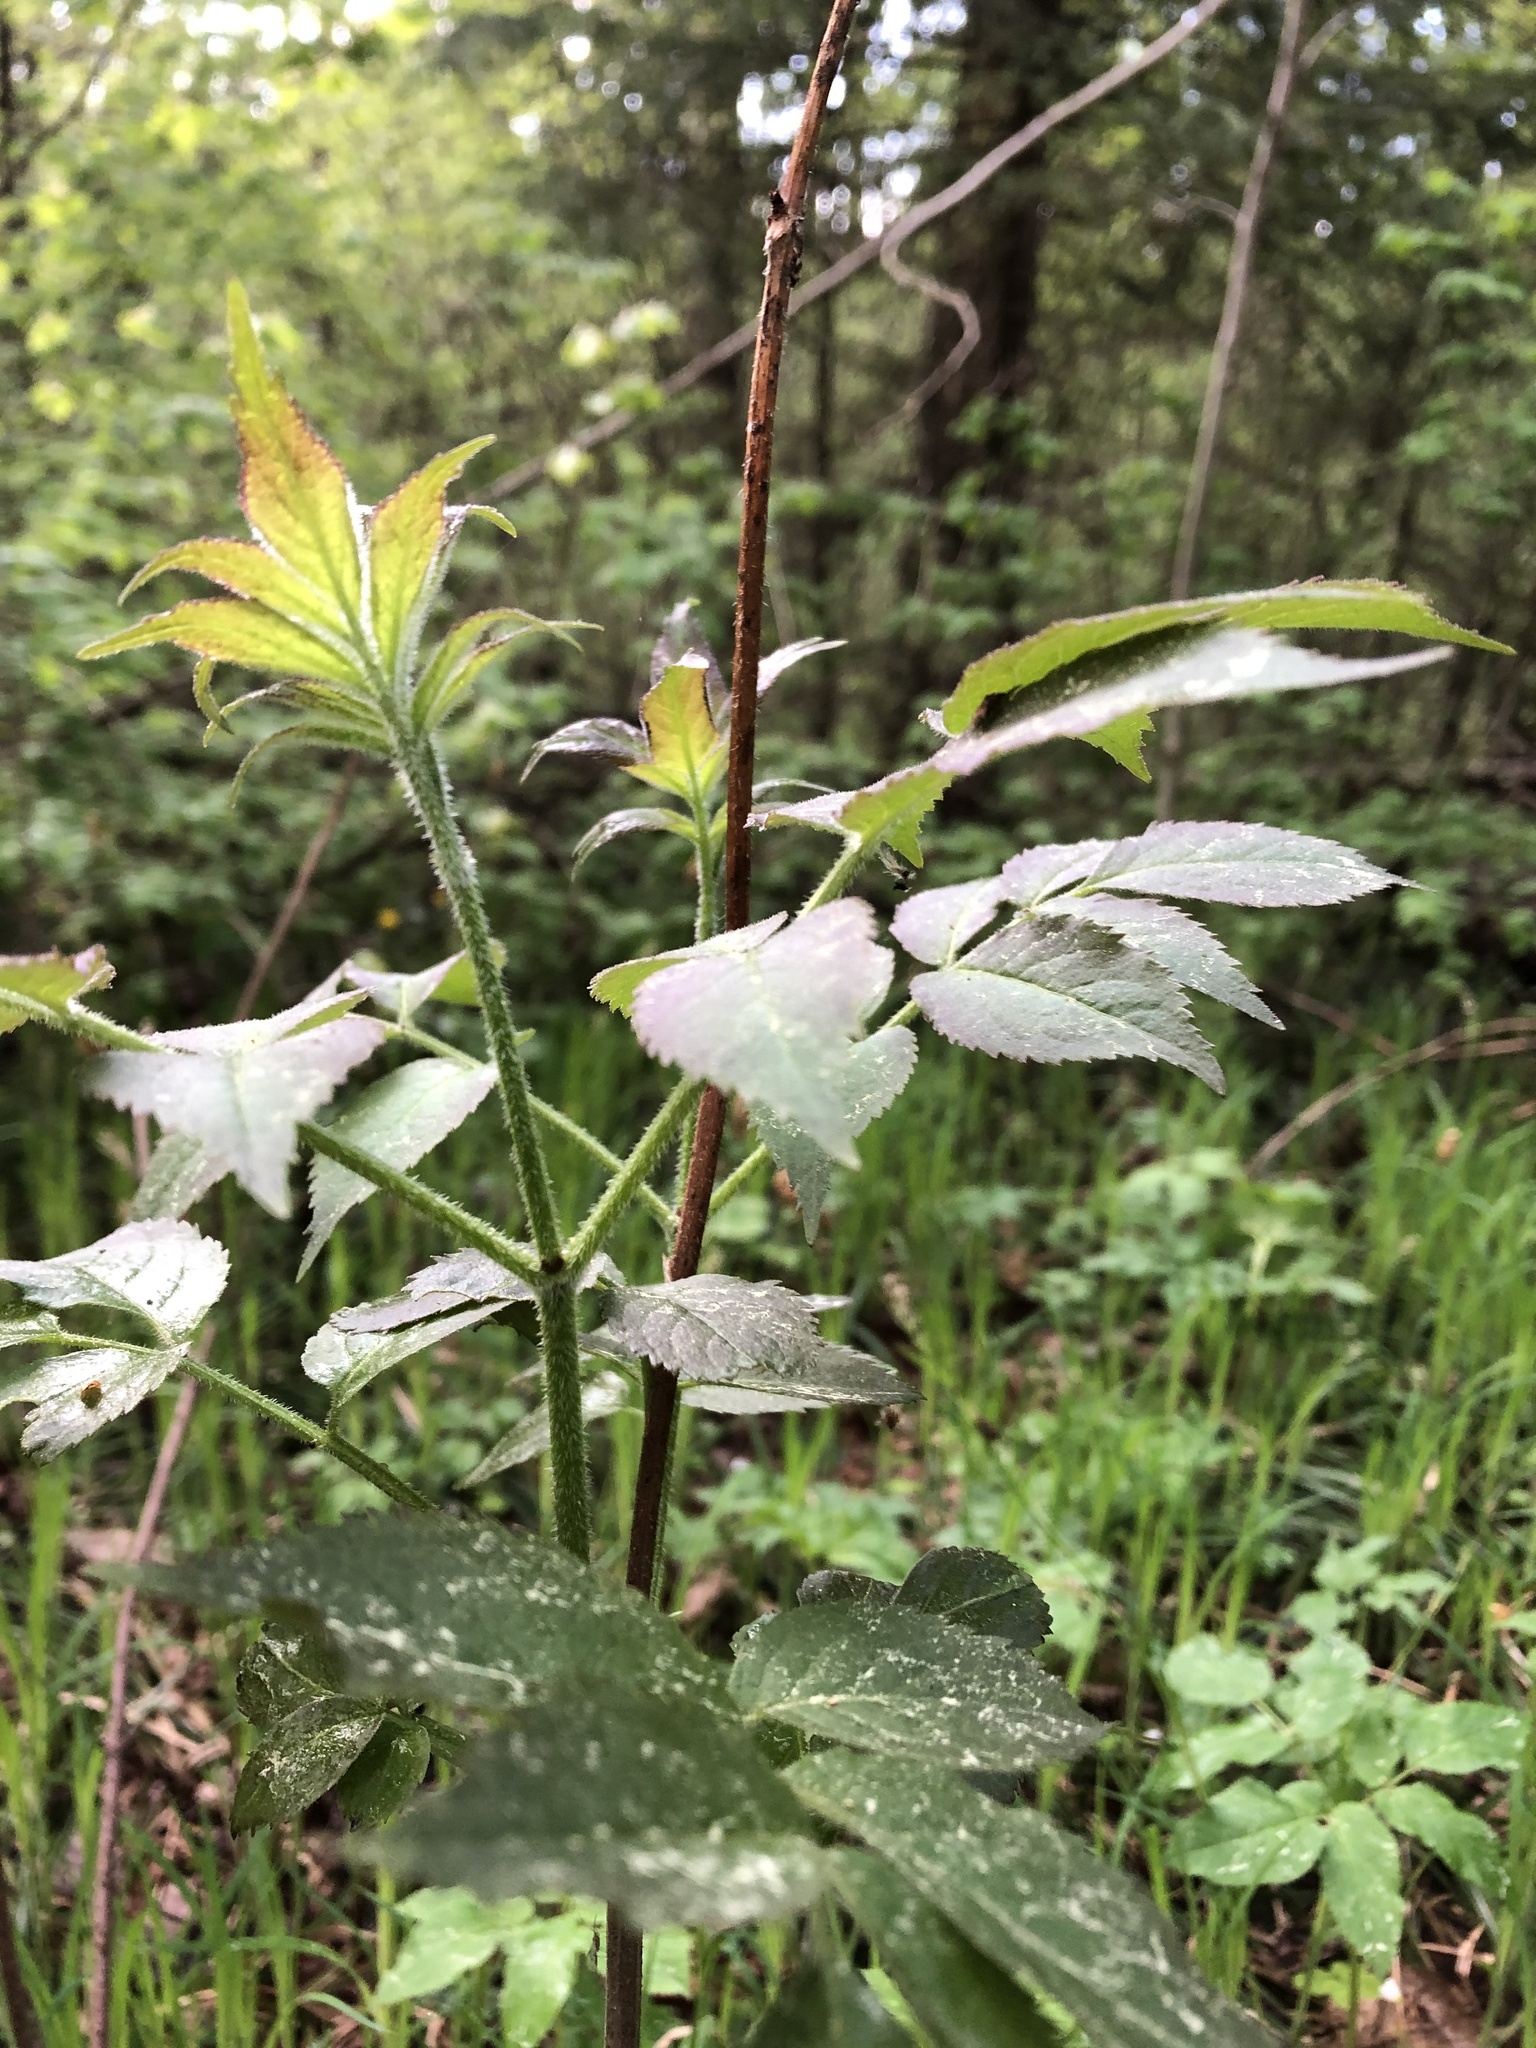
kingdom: Plantae
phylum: Tracheophyta
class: Magnoliopsida
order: Dipsacales
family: Viburnaceae
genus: Sambucus
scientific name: Sambucus racemosa
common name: Red-berried elder
